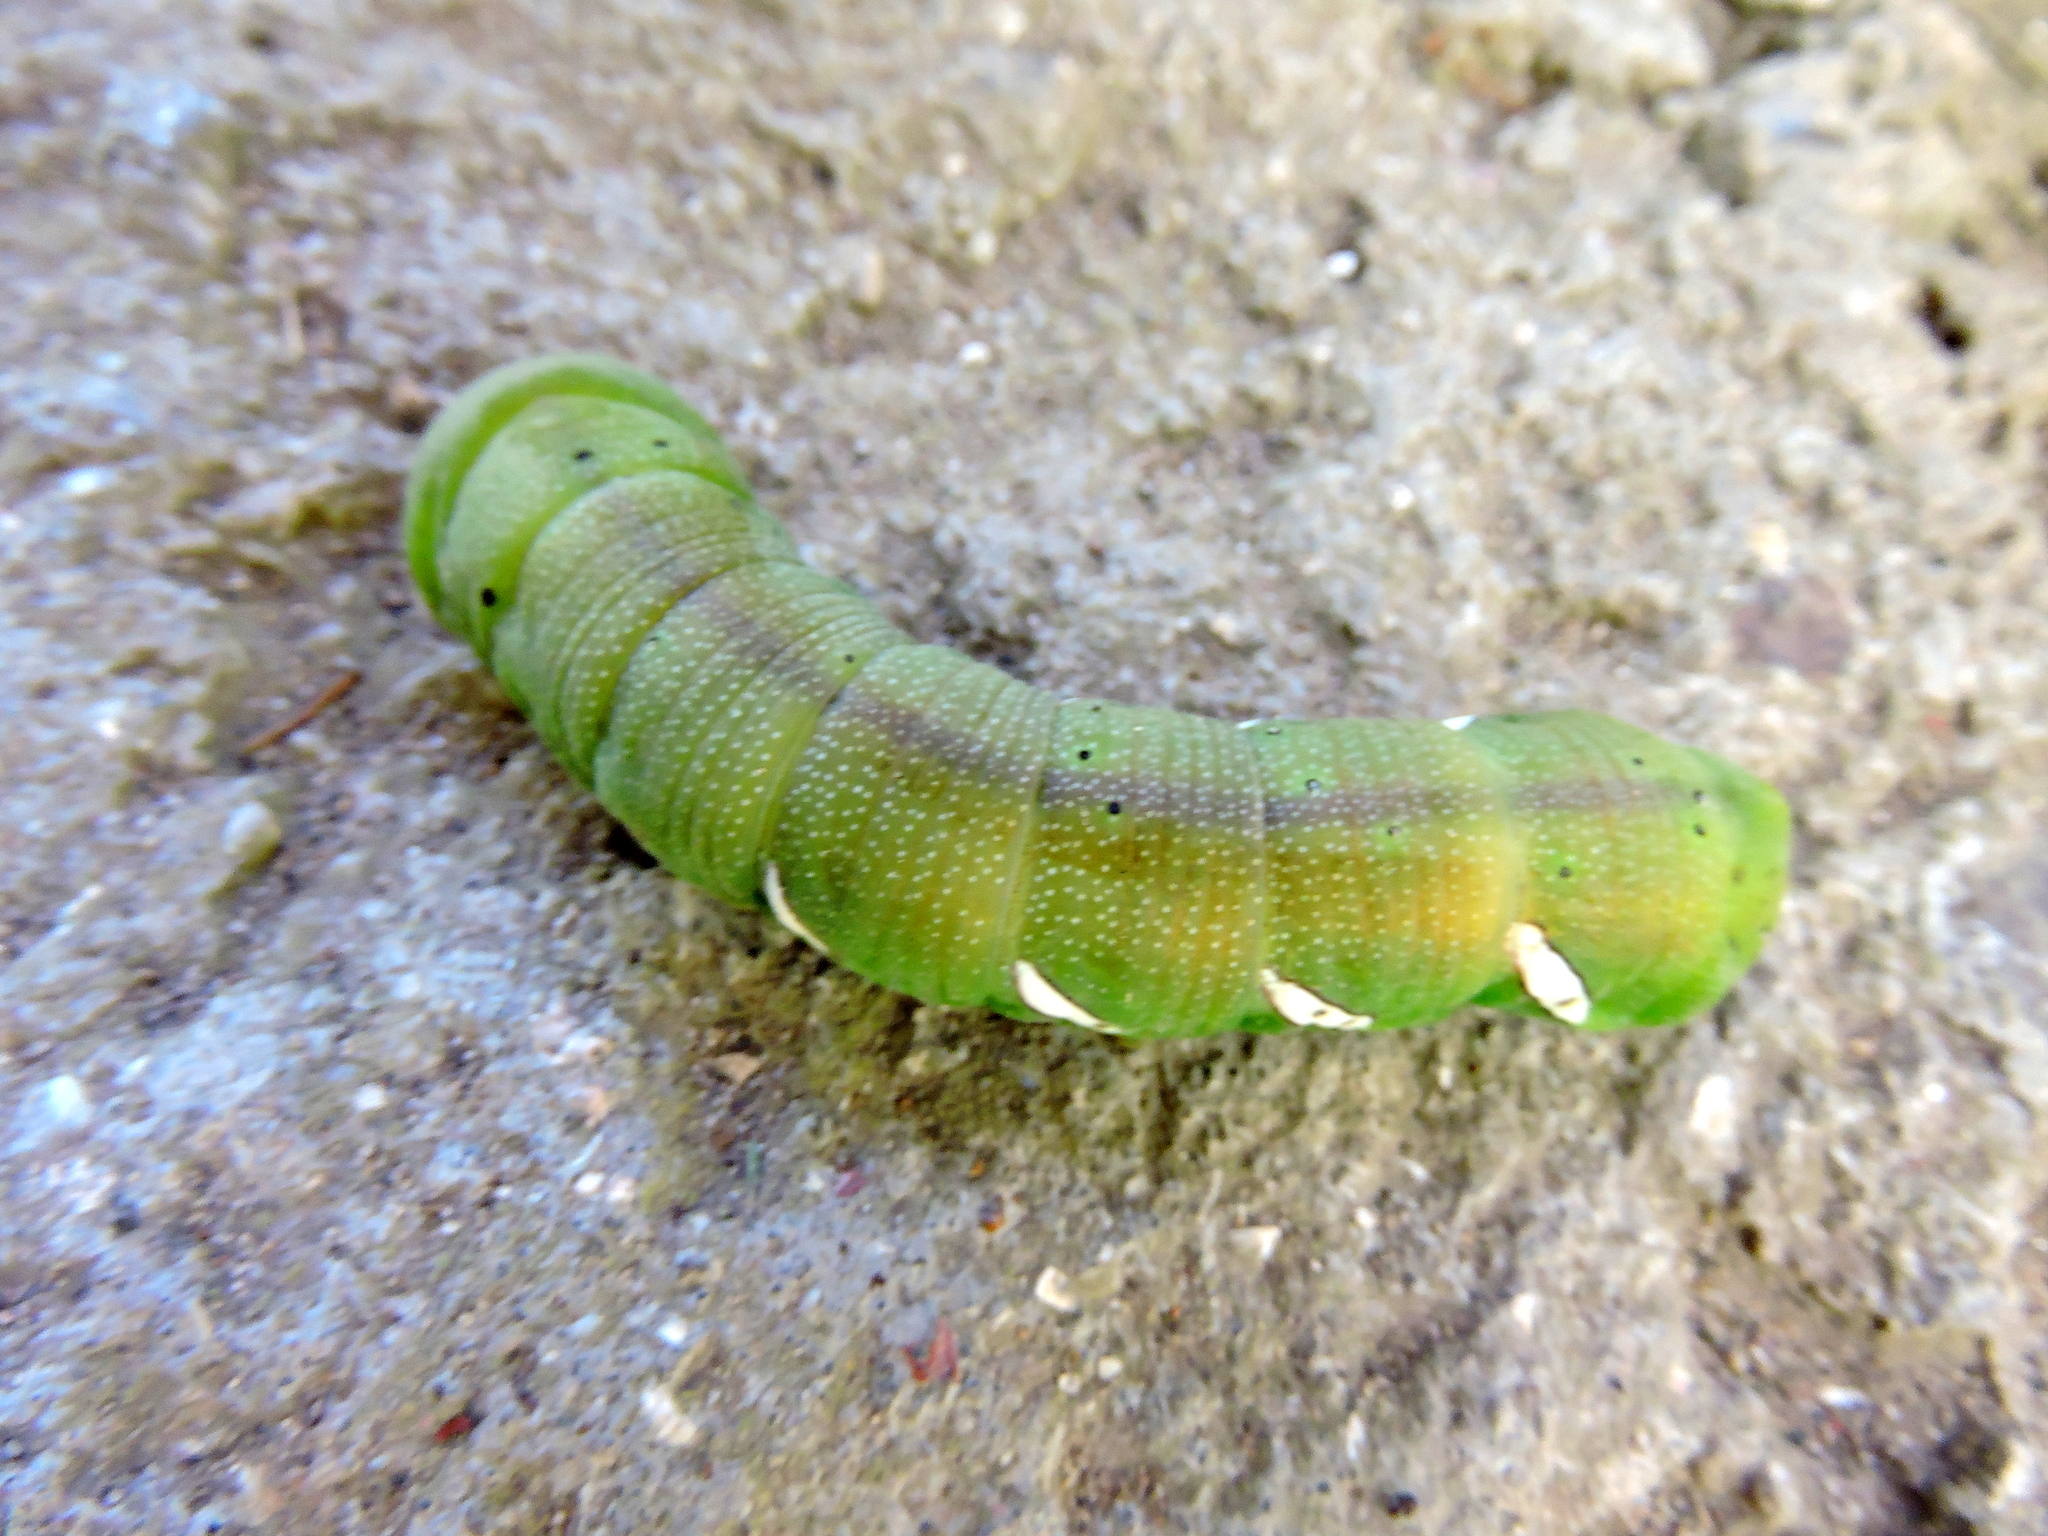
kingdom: Animalia
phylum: Arthropoda
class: Insecta
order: Lepidoptera
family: Sphingidae
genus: Eumorpha
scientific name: Eumorpha analis
